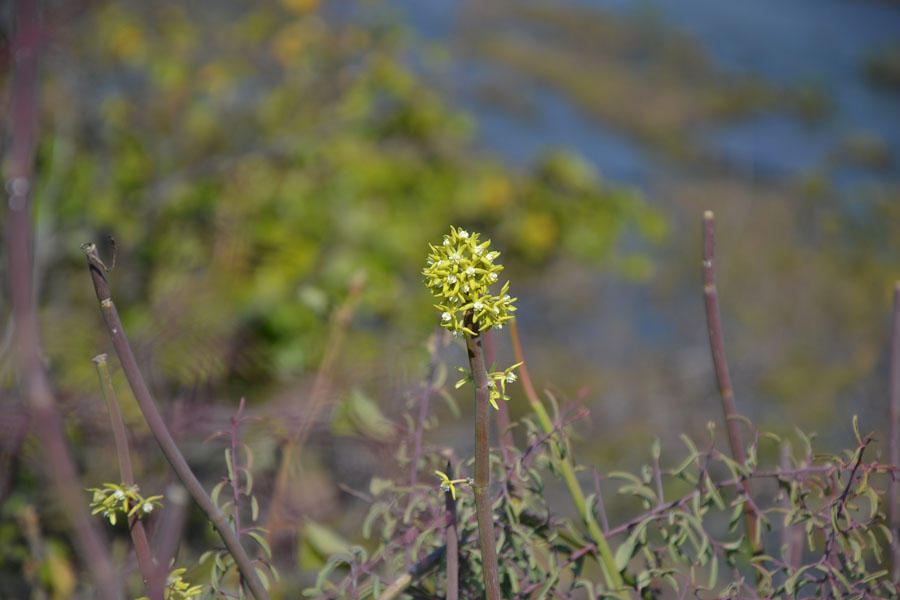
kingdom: Plantae
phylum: Tracheophyta
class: Magnoliopsida
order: Gentianales
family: Apocynaceae
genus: Cynanchum
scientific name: Cynanchum viminale
